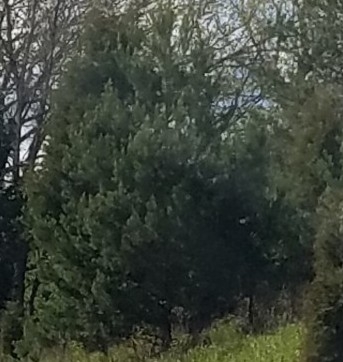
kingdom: Plantae
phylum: Tracheophyta
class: Pinopsida
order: Pinales
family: Cupressaceae
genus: Juniperus
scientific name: Juniperus virginiana
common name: Red juniper
